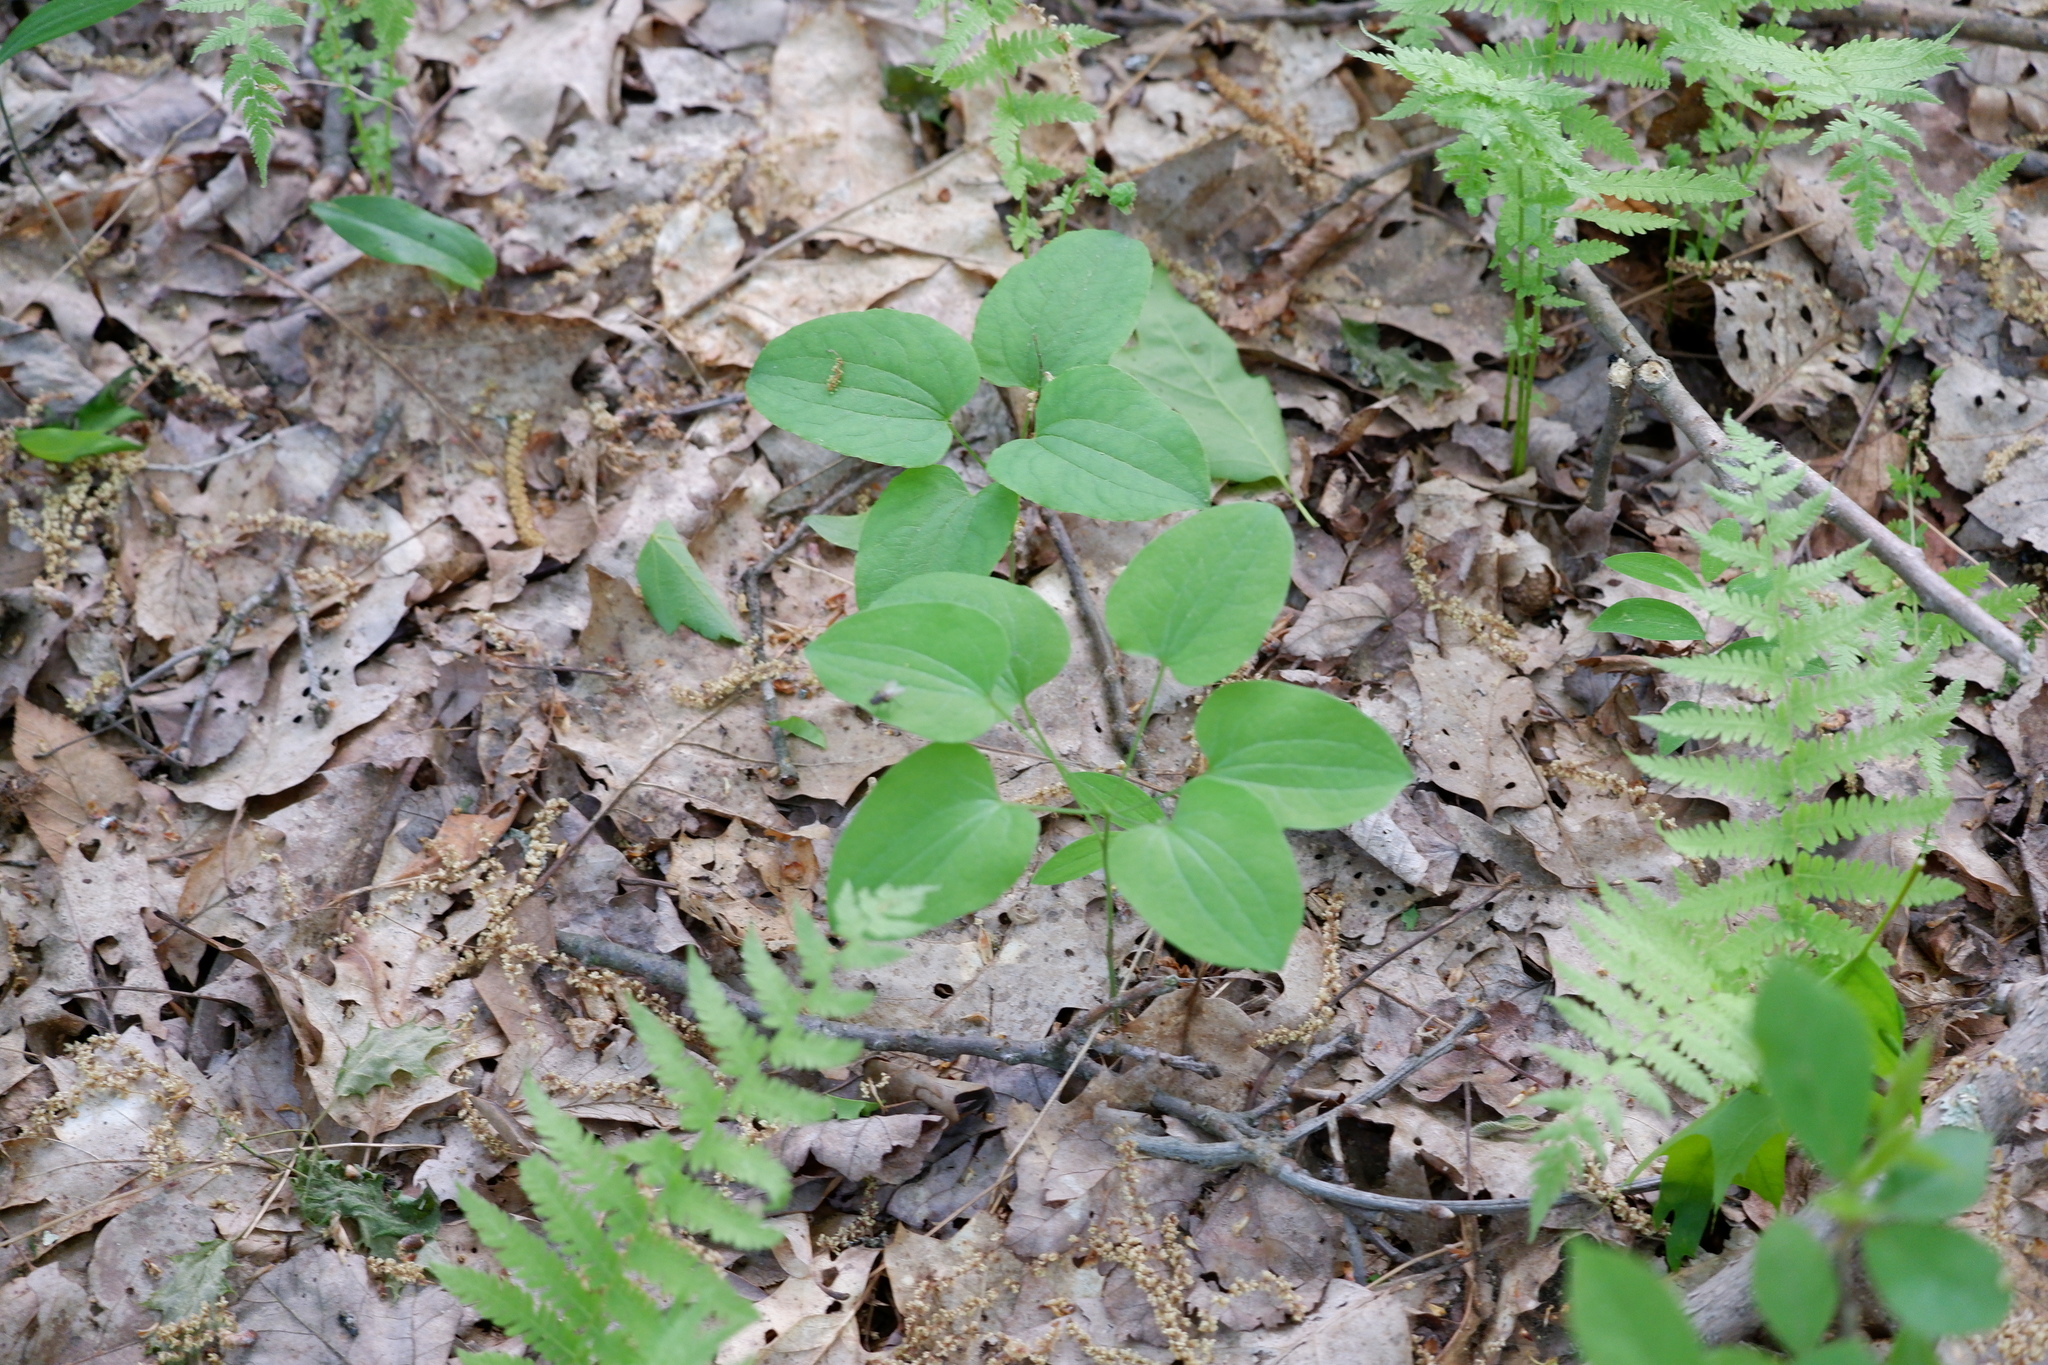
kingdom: Plantae
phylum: Tracheophyta
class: Liliopsida
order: Liliales
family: Smilacaceae
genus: Smilax
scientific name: Smilax herbacea
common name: Jacob's-ladder
